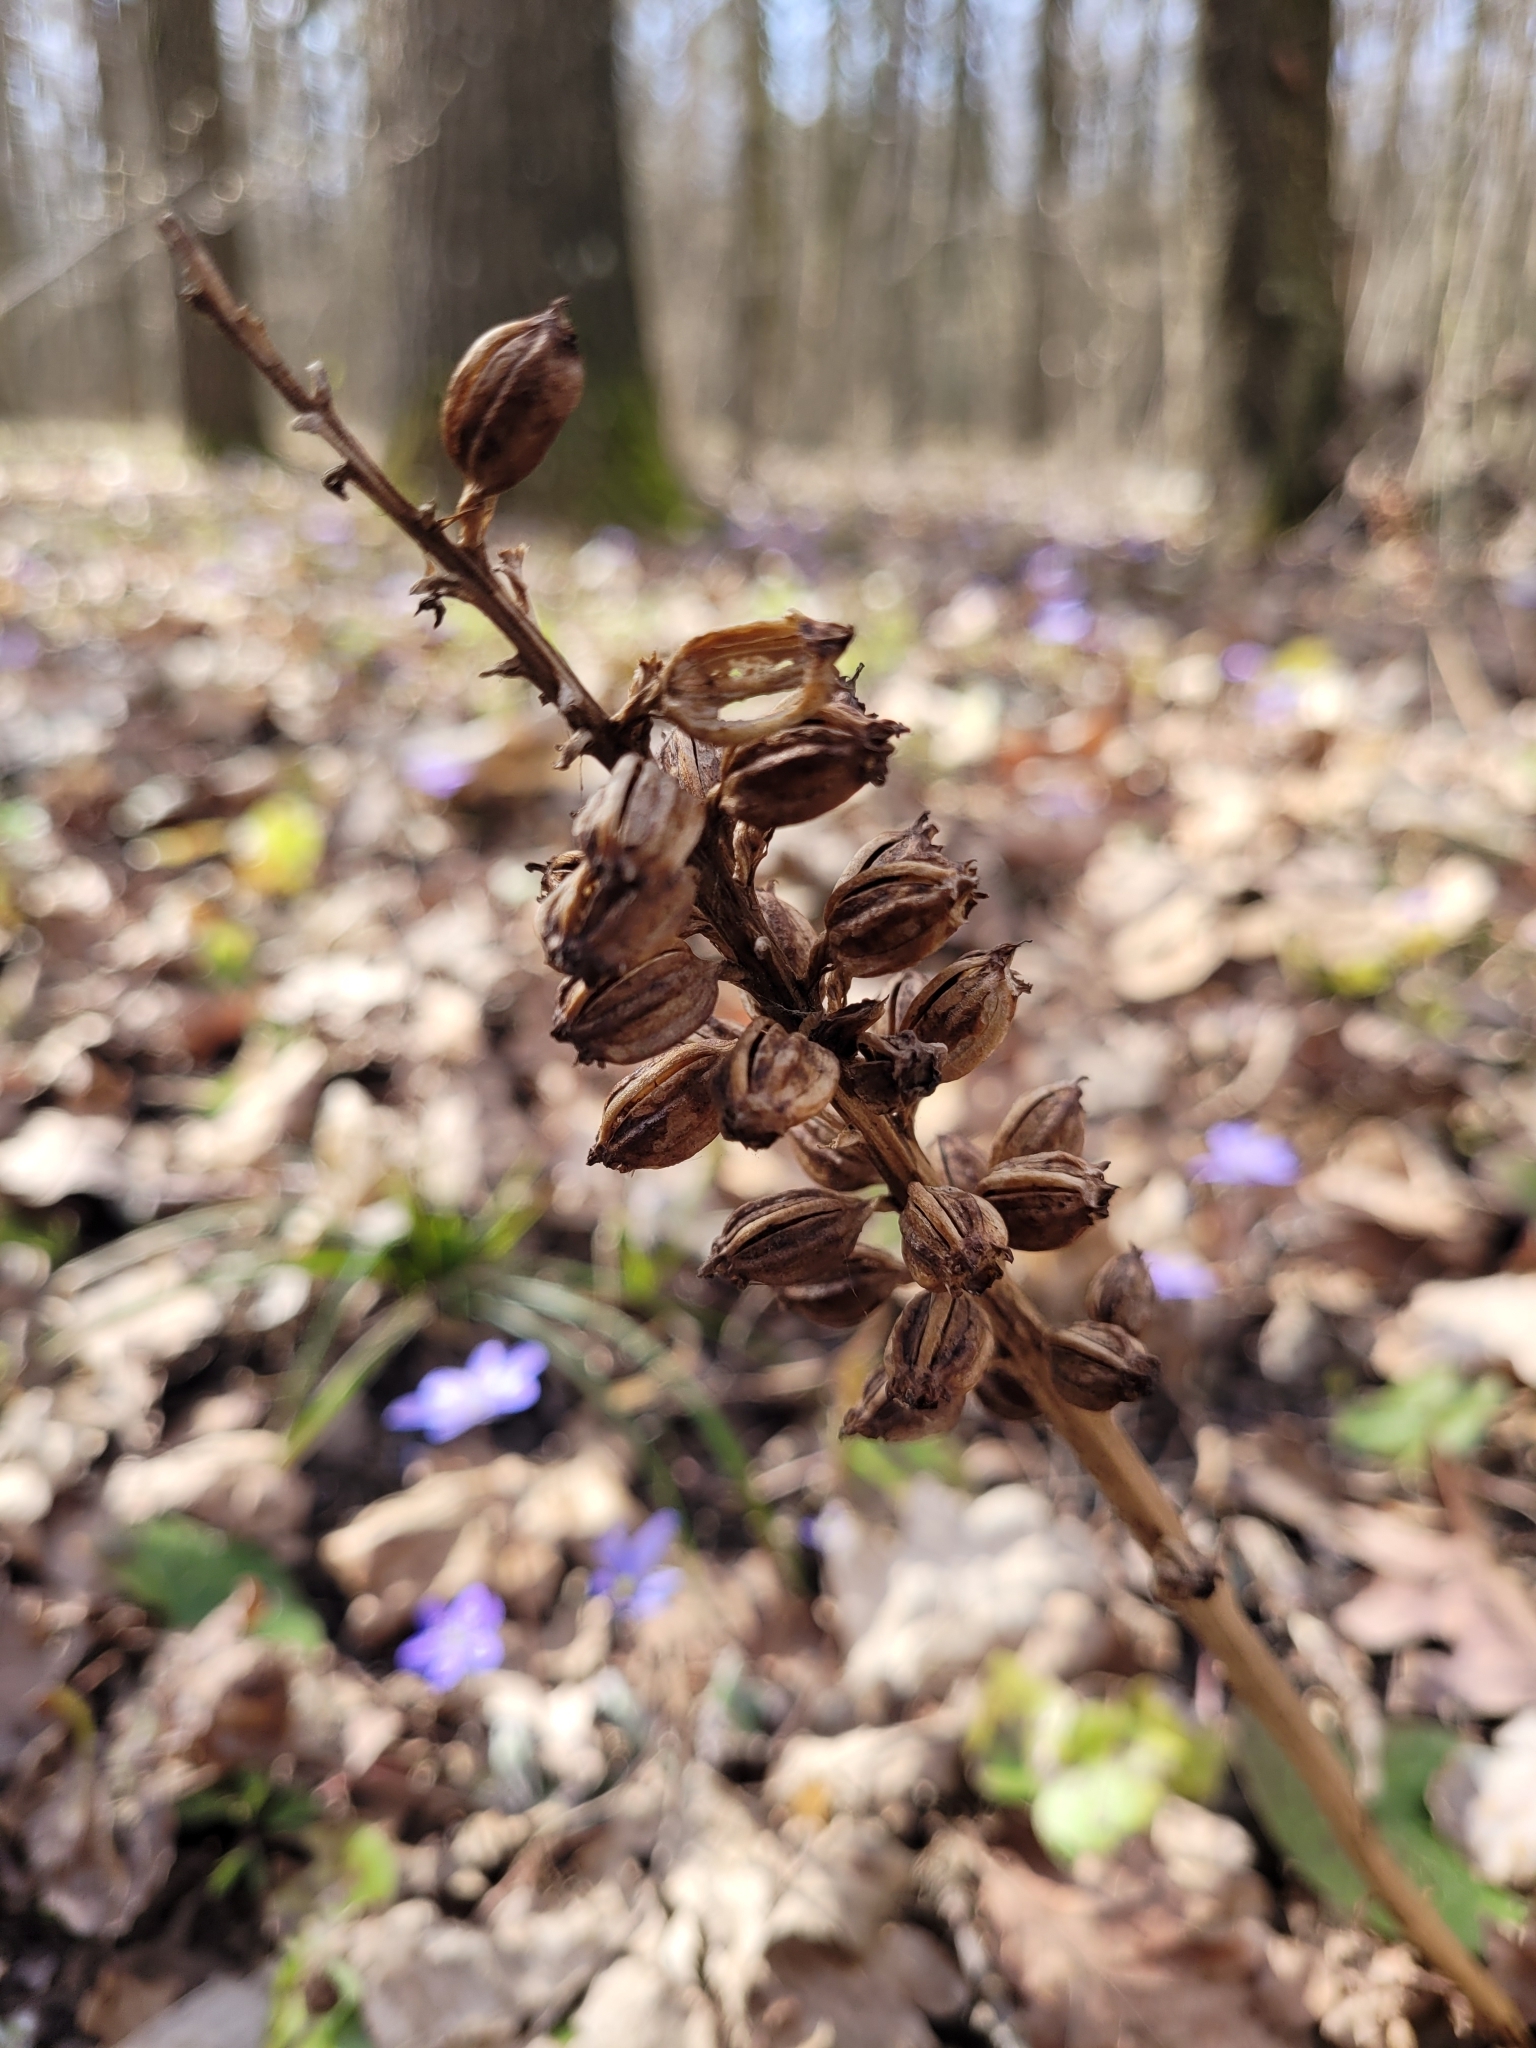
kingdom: Plantae
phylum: Tracheophyta
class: Liliopsida
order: Asparagales
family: Orchidaceae
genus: Neottia
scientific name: Neottia nidus-avis
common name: Bird's-nest orchid
